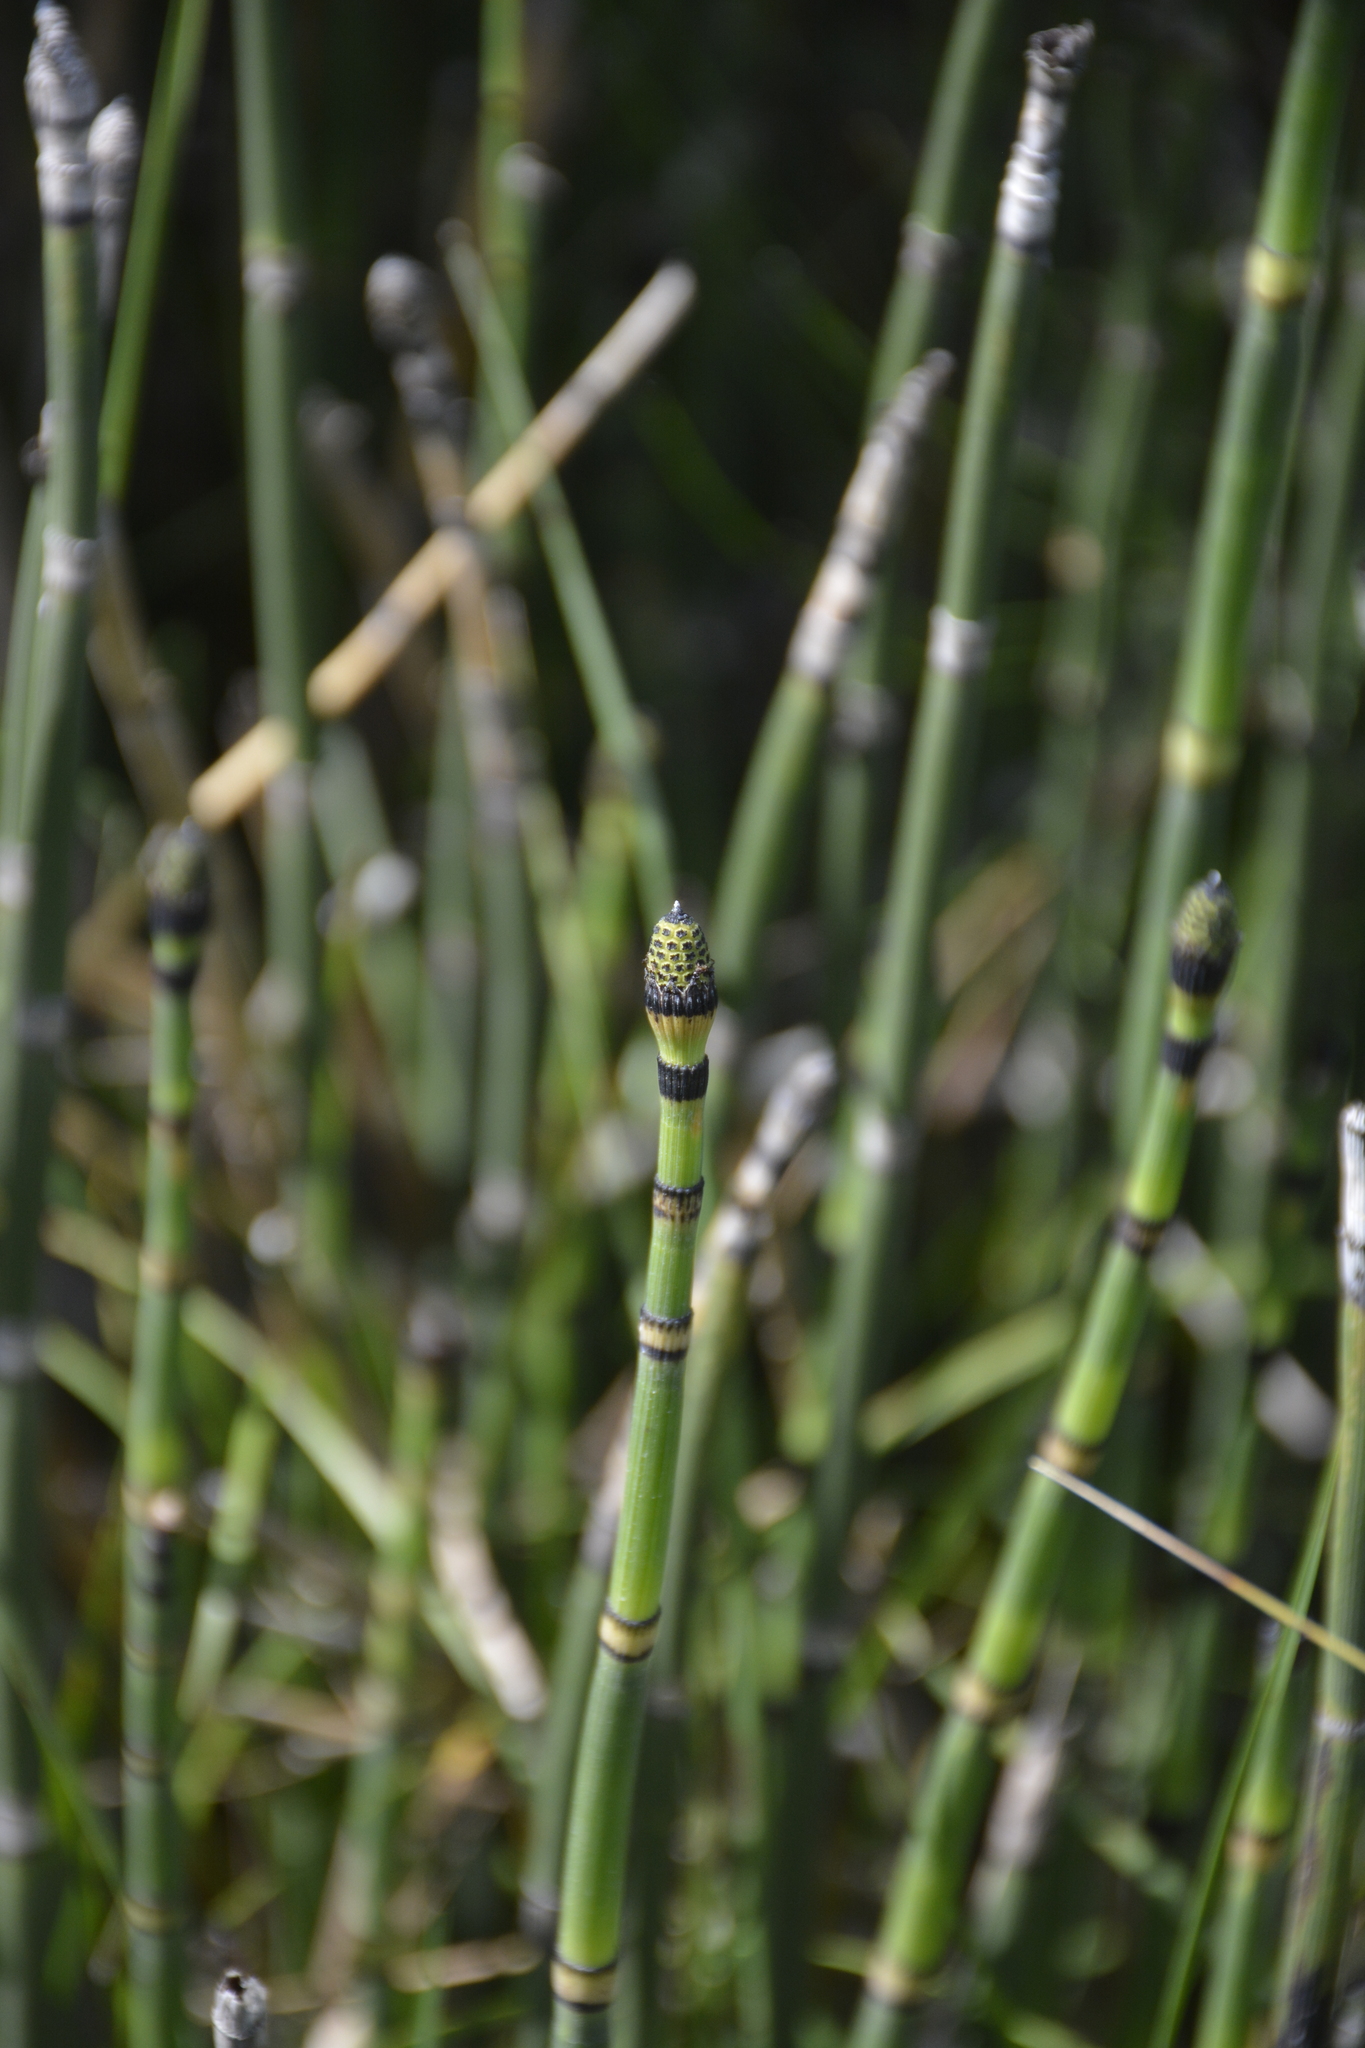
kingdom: Plantae
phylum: Tracheophyta
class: Polypodiopsida
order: Equisetales
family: Equisetaceae
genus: Equisetum
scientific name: Equisetum hyemale
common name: Rough horsetail
